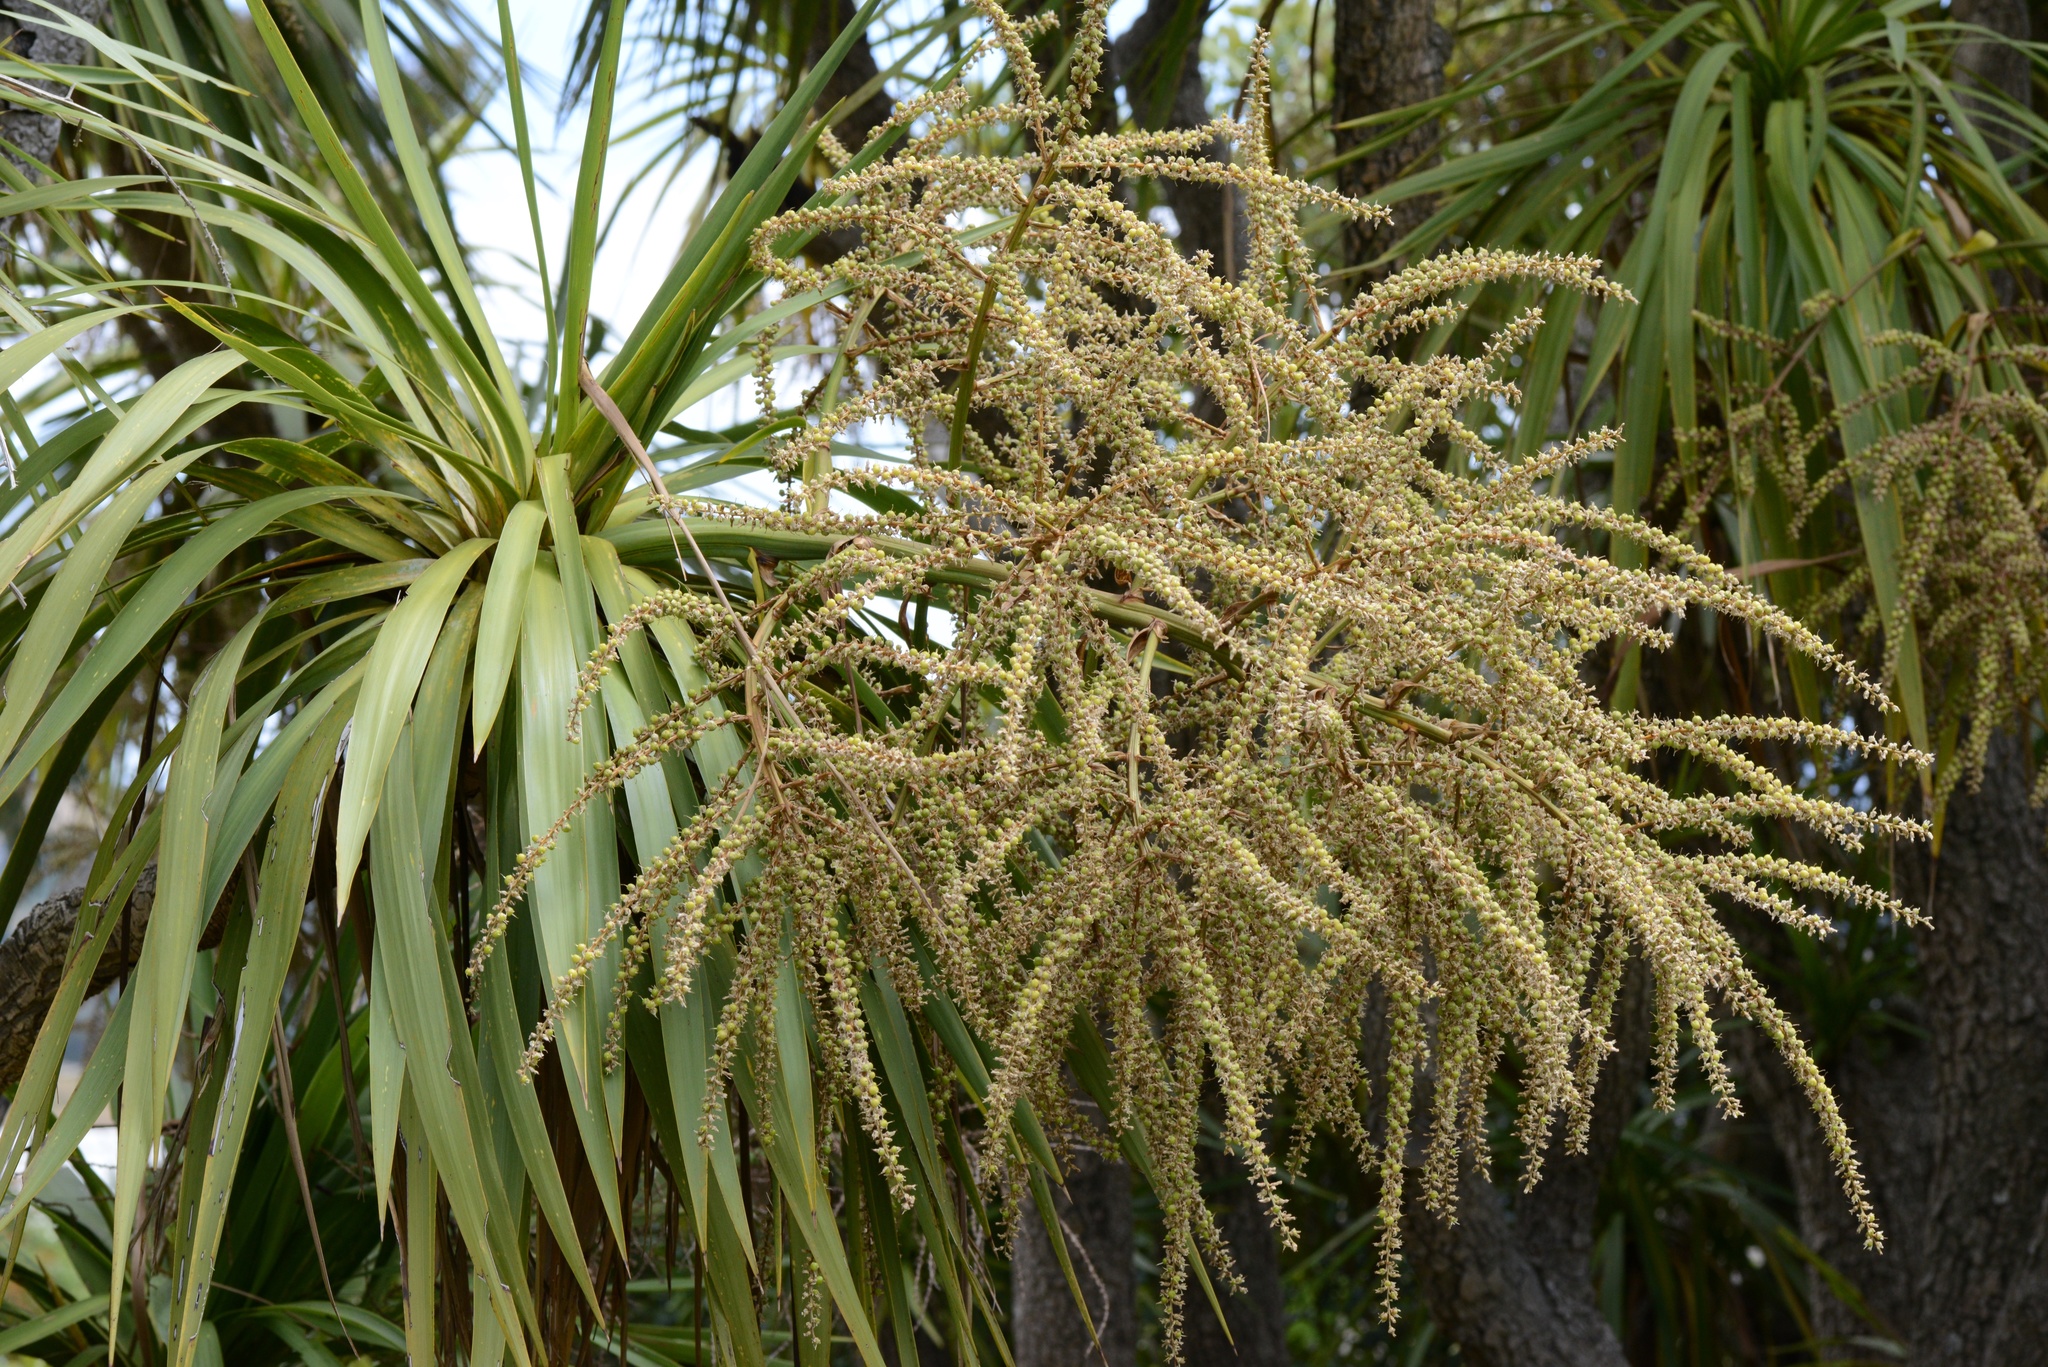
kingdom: Plantae
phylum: Tracheophyta
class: Liliopsida
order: Asparagales
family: Asparagaceae
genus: Cordyline
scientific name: Cordyline australis
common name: Cabbage-palm
